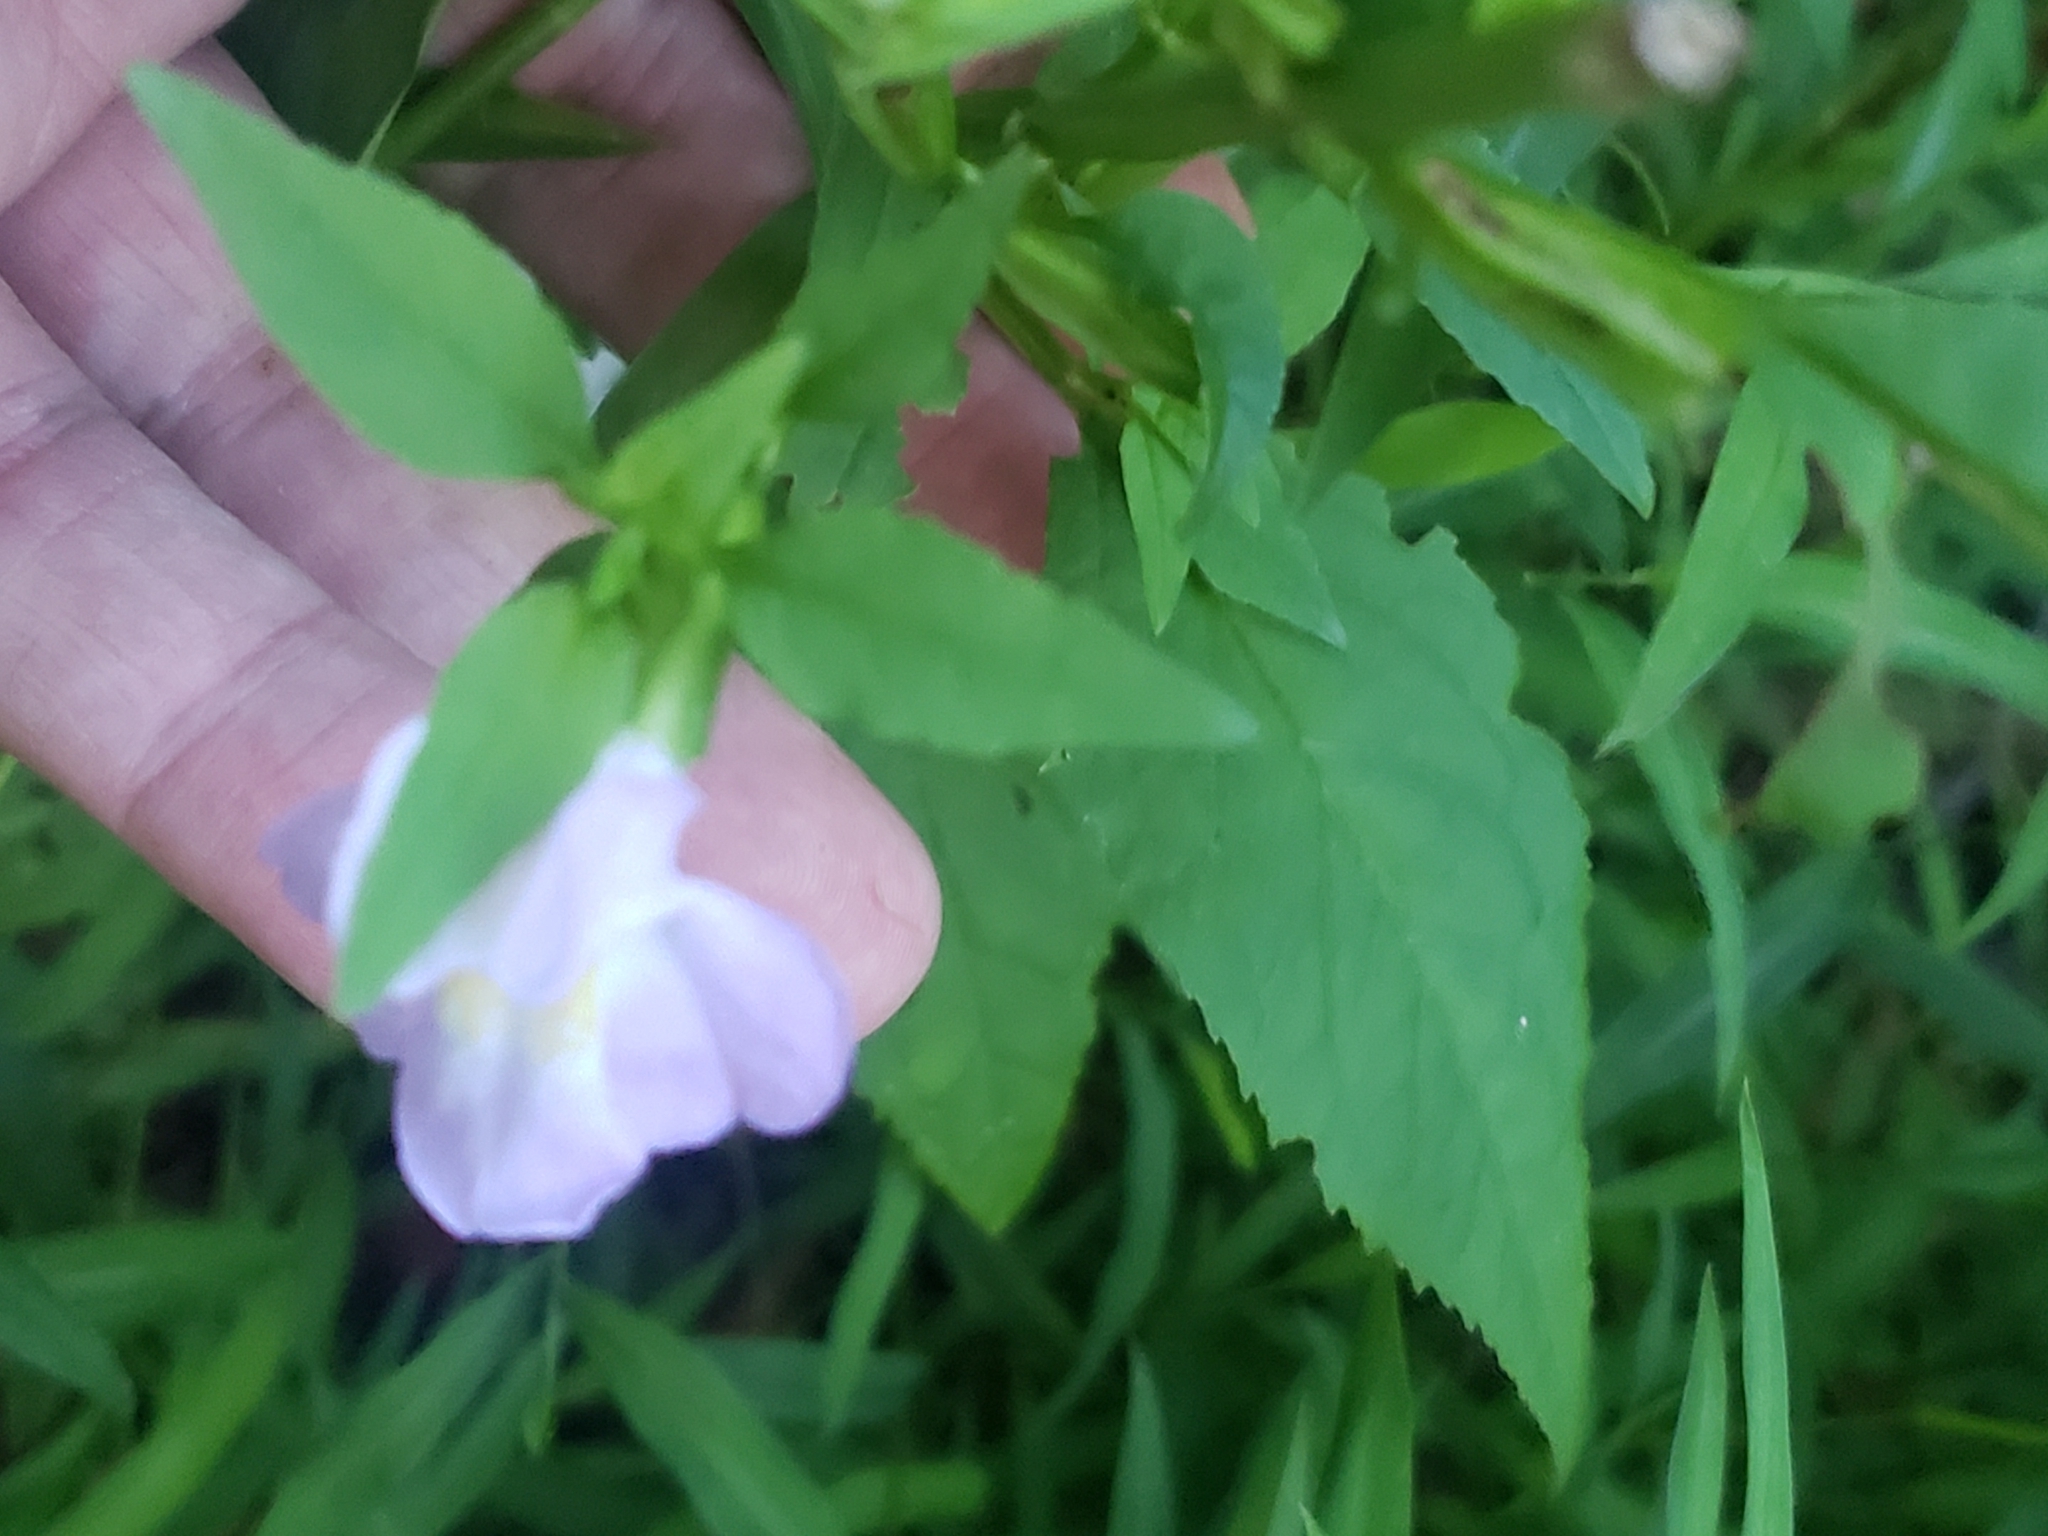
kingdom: Plantae
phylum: Tracheophyta
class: Magnoliopsida
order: Lamiales
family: Phrymaceae
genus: Mimulus
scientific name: Mimulus alatus
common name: Sharp-wing monkey-flower
